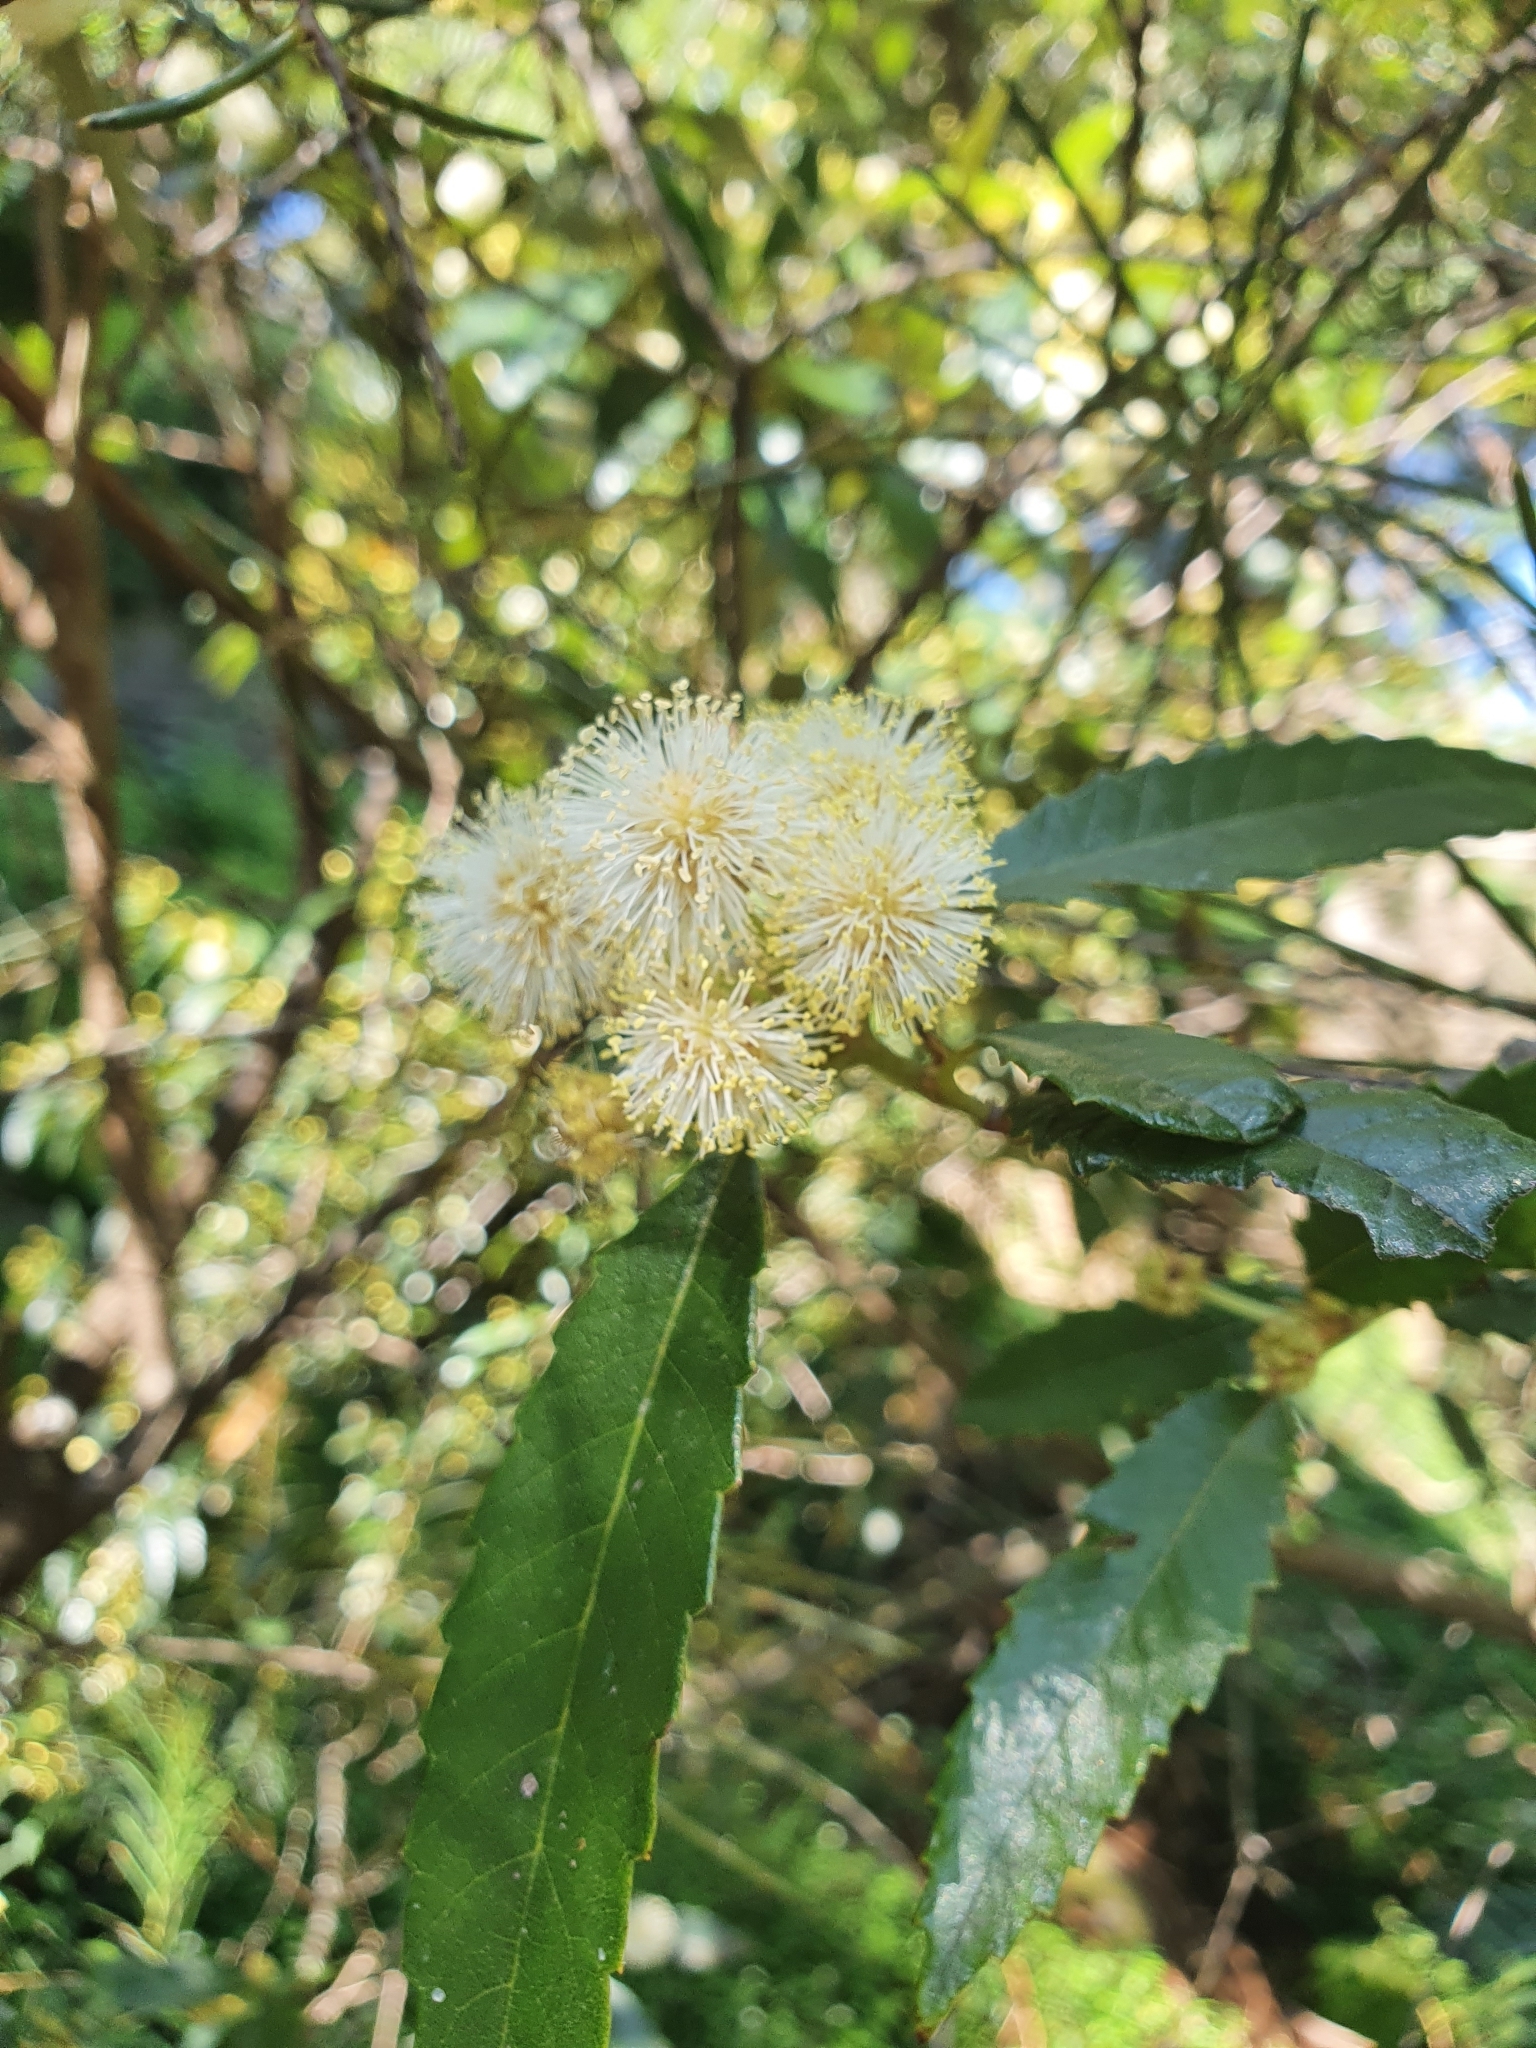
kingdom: Plantae
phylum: Tracheophyta
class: Magnoliopsida
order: Oxalidales
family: Cunoniaceae
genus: Callicoma
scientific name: Callicoma serratifolia
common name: Black wattle
